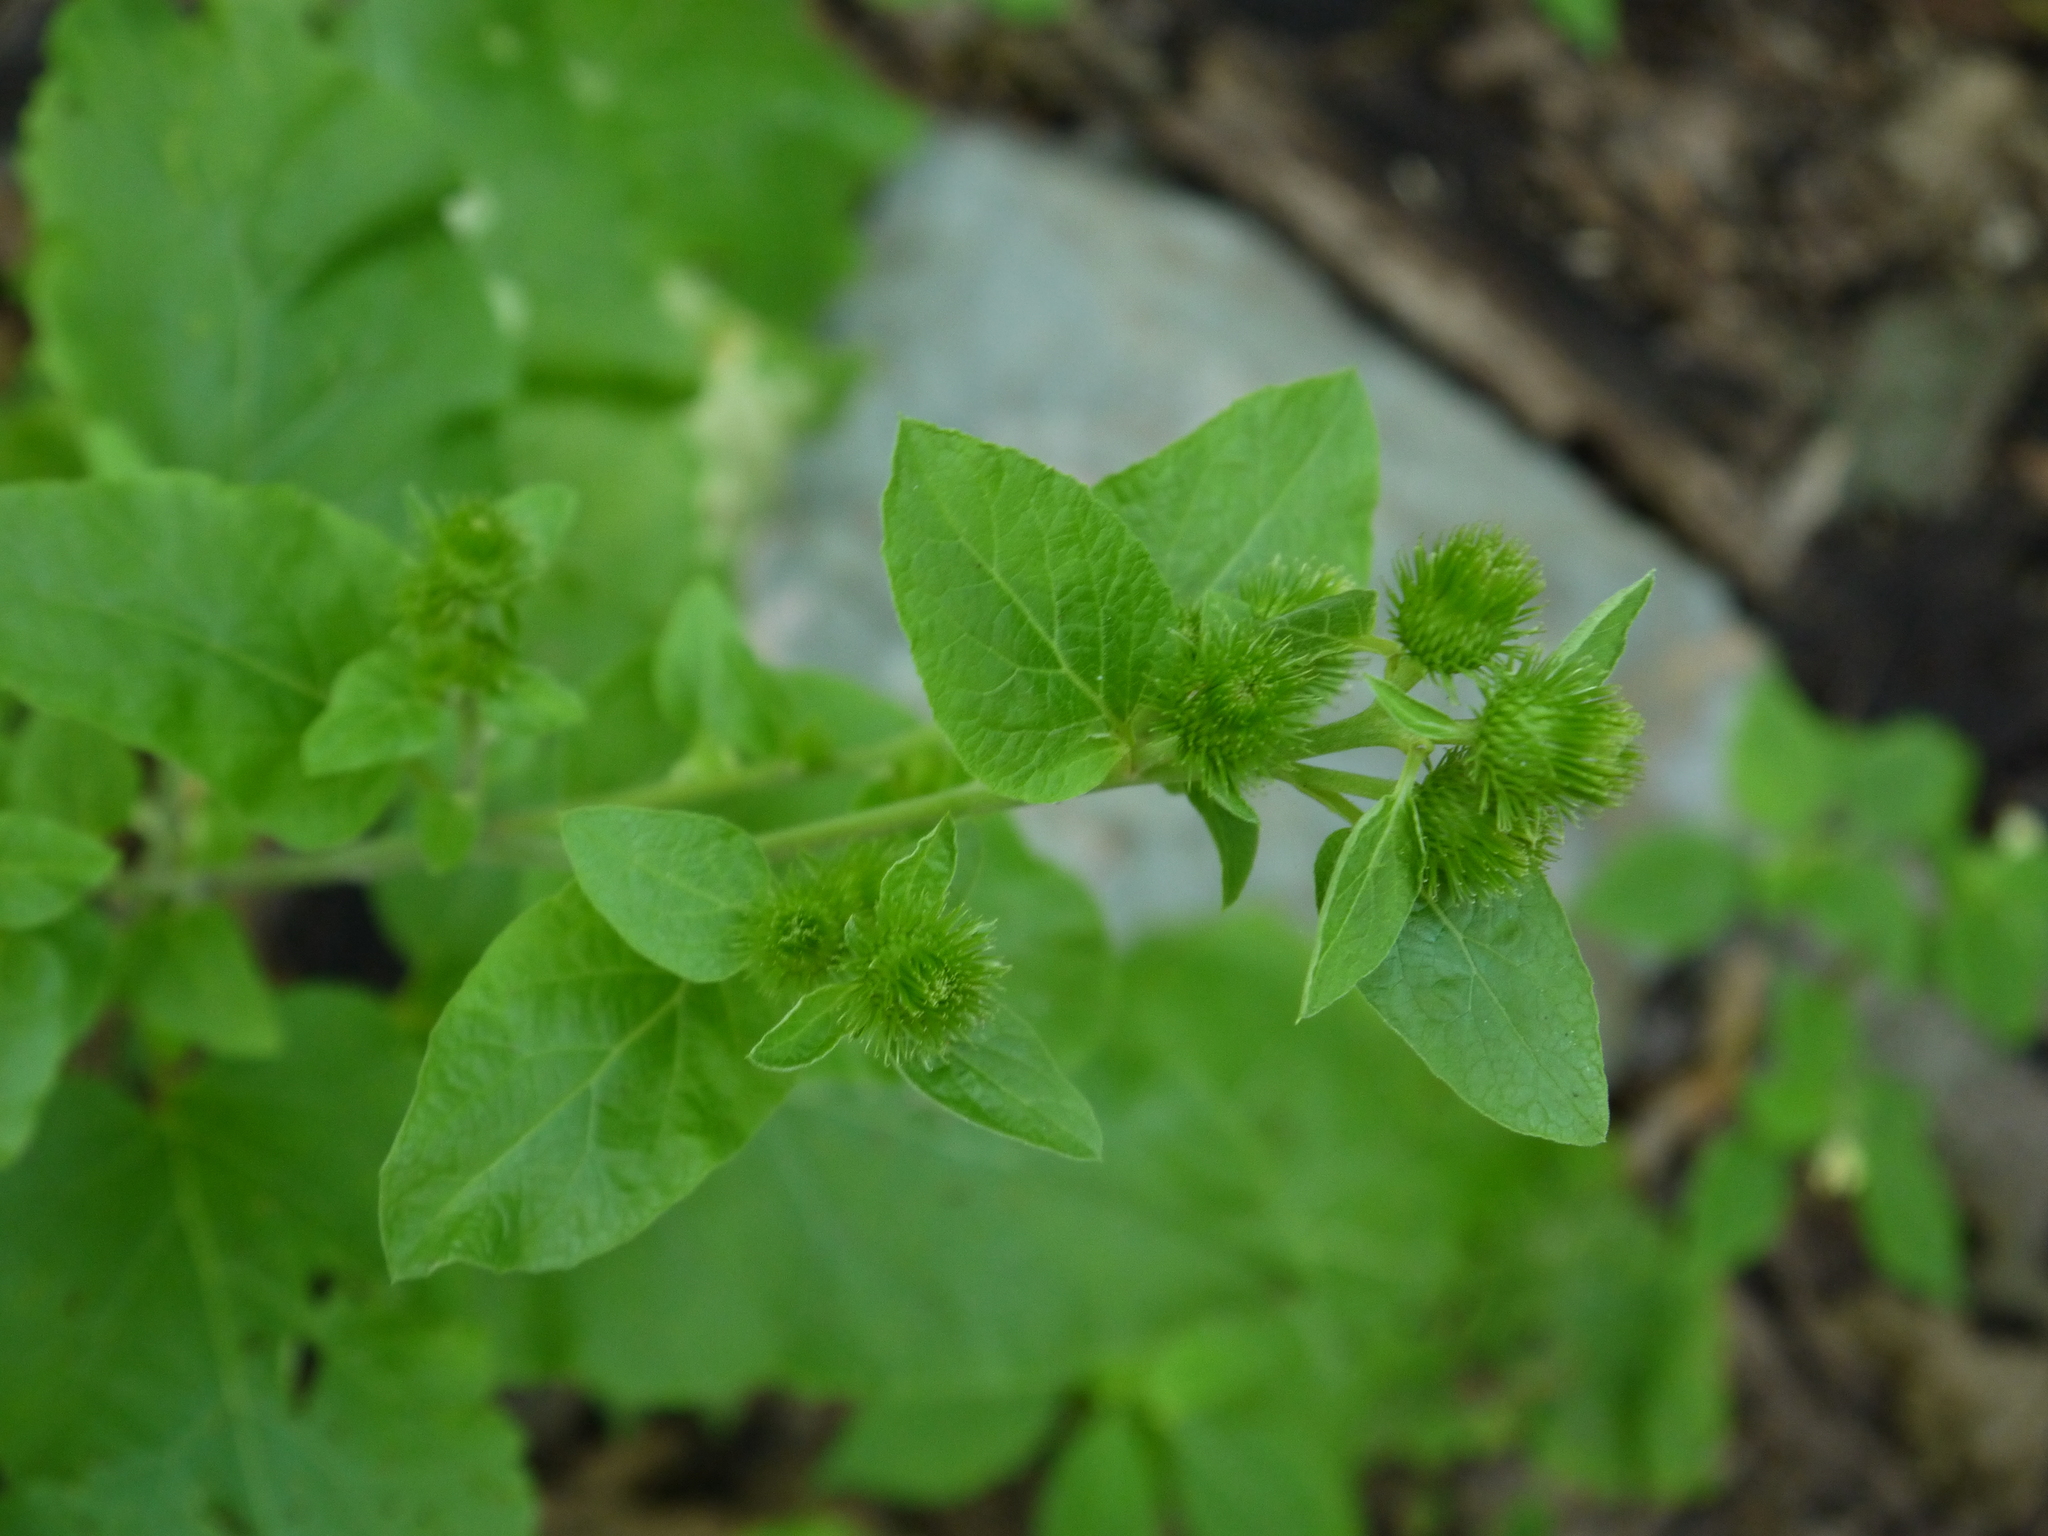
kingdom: Plantae
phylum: Tracheophyta
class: Magnoliopsida
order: Asterales
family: Asteraceae
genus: Arctium
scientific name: Arctium minus
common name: Lesser burdock
